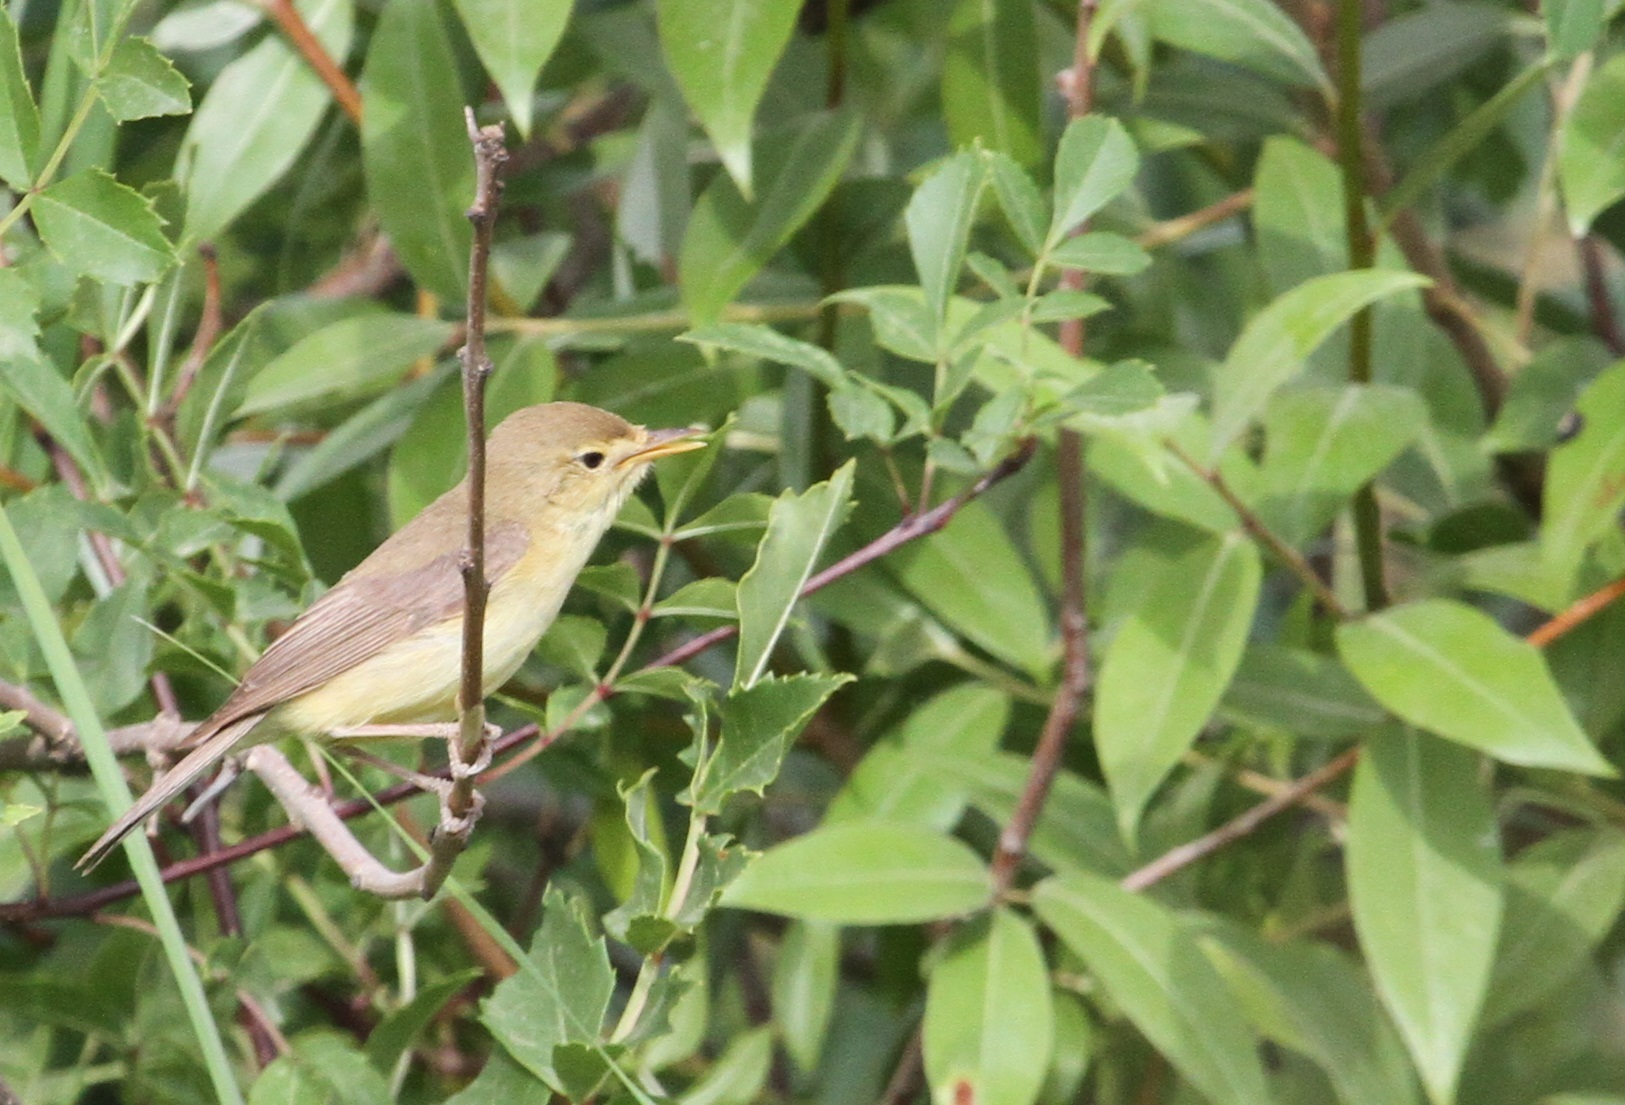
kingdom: Animalia
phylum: Chordata
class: Aves
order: Passeriformes
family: Acrocephalidae
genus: Hippolais
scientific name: Hippolais polyglotta
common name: Melodious warbler
